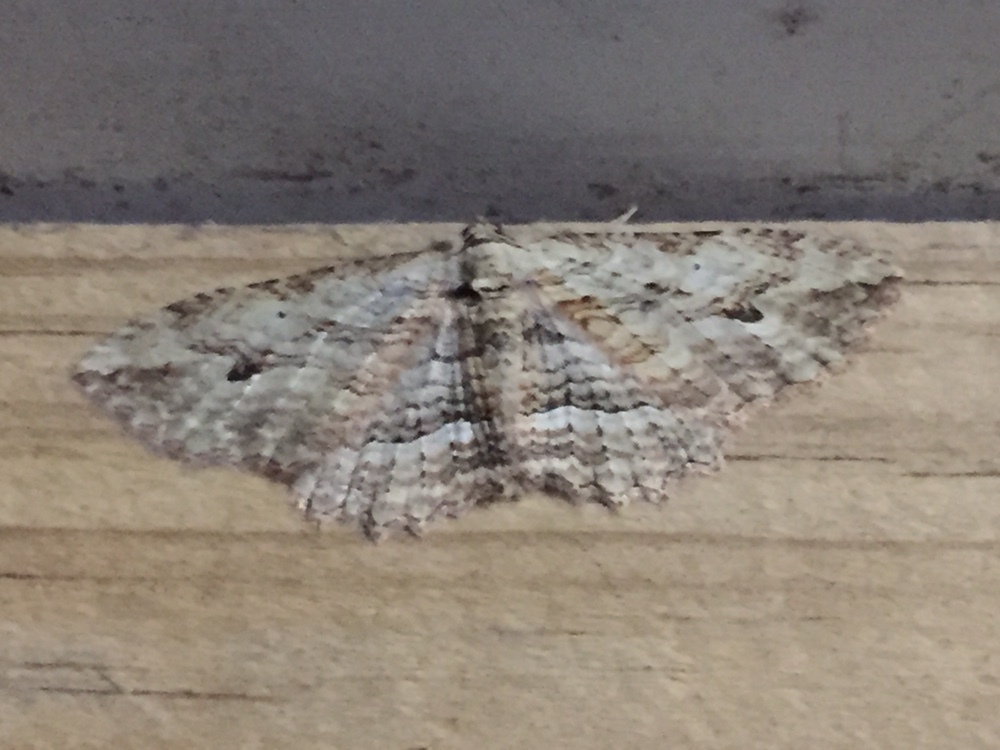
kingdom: Animalia
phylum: Arthropoda
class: Insecta
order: Lepidoptera
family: Geometridae
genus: Austrocidaria
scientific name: Austrocidaria bipartita
